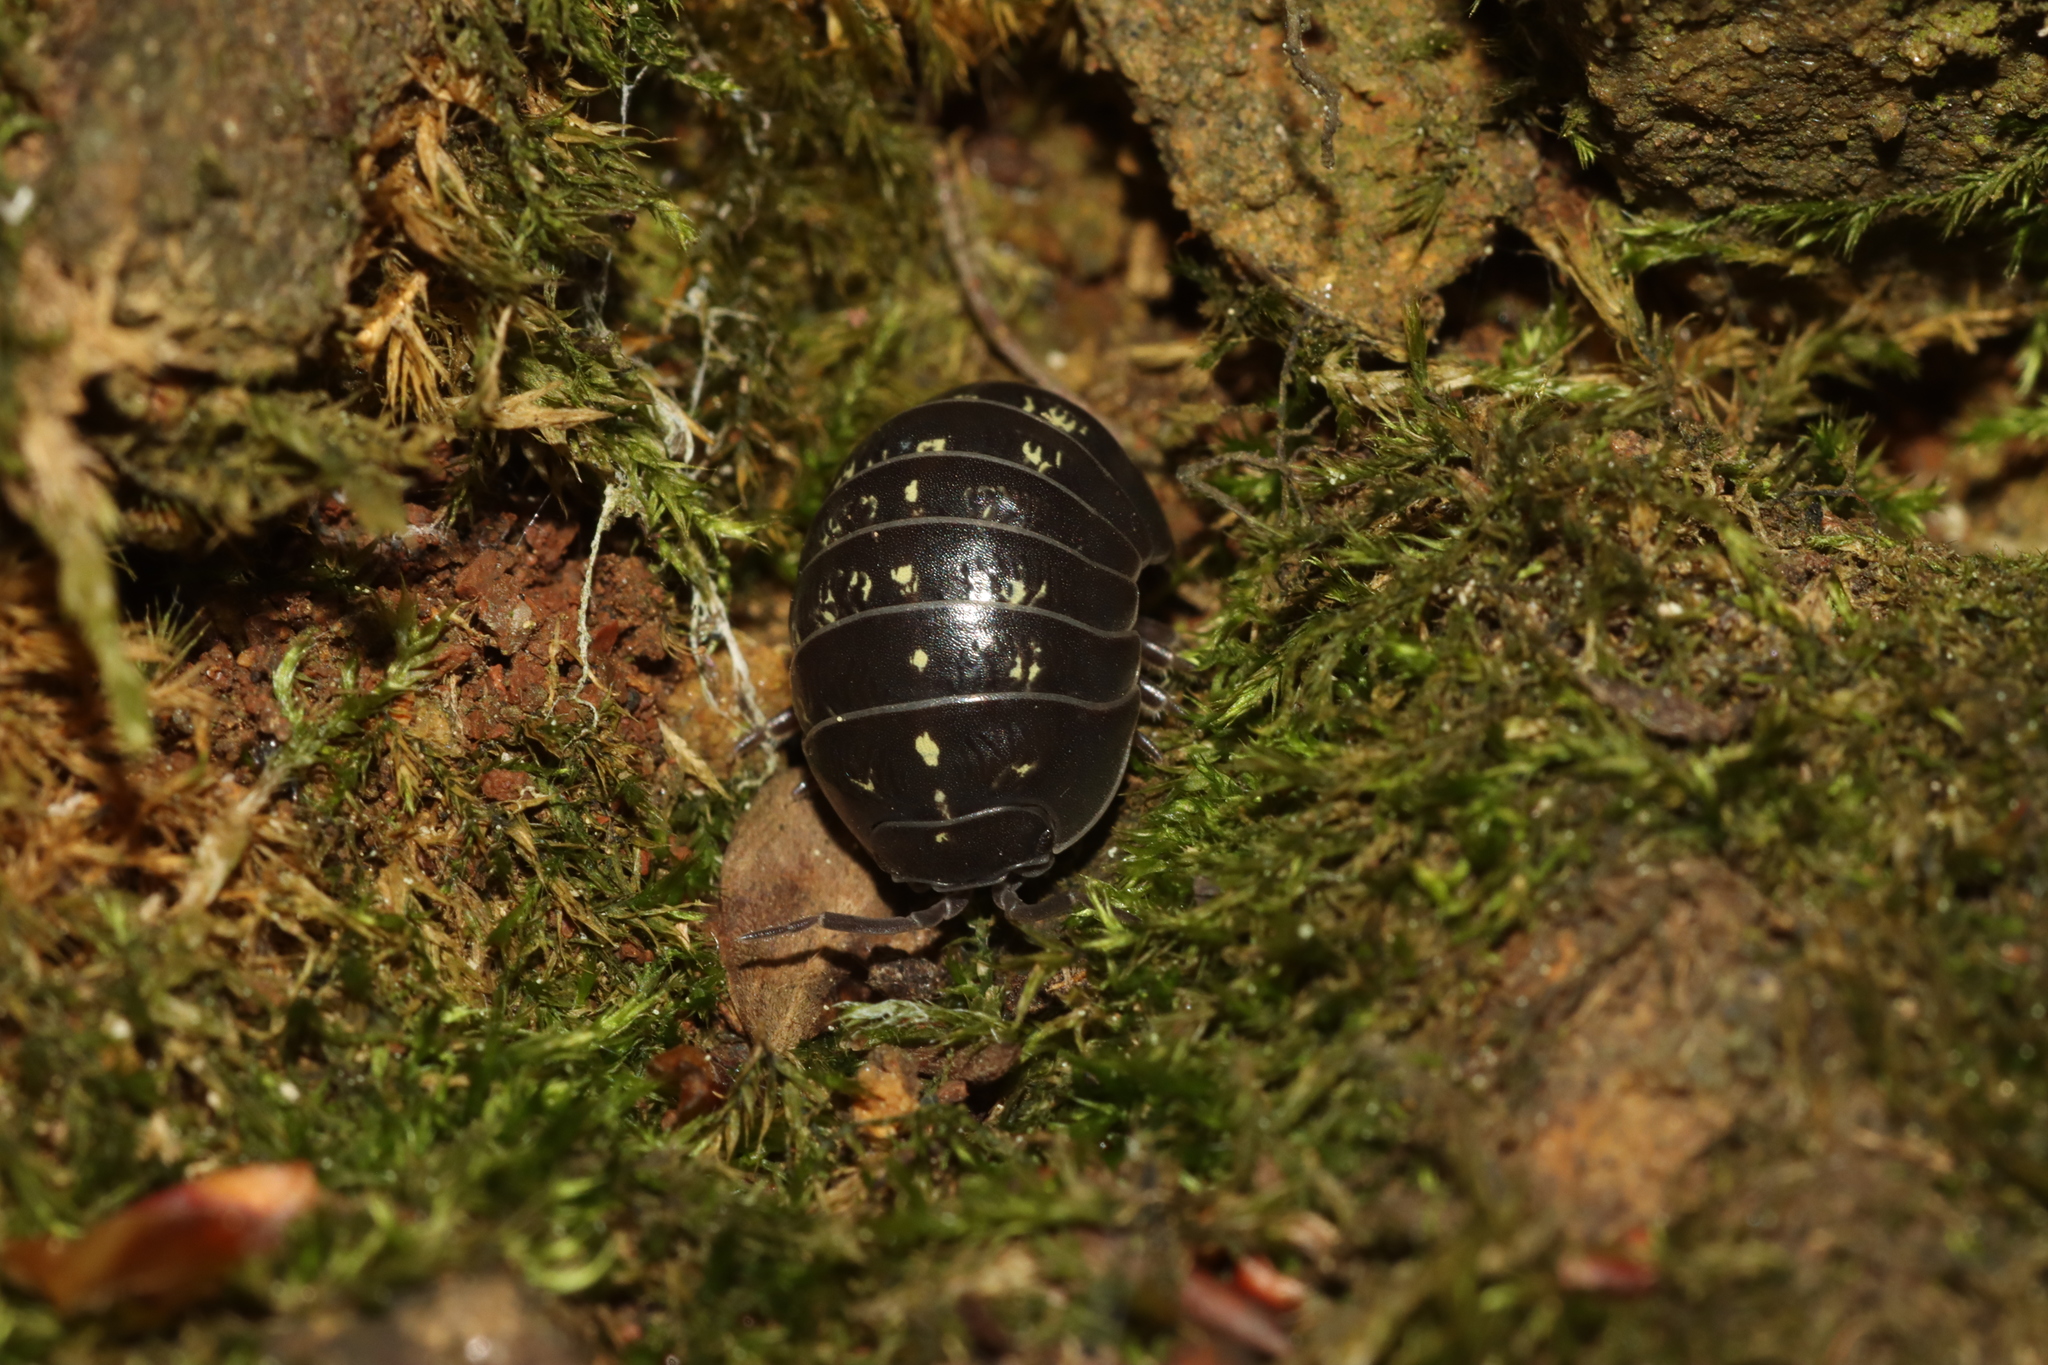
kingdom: Animalia
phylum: Arthropoda
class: Malacostraca
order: Isopoda
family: Armadillidiidae
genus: Armadillidium
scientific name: Armadillidium vulgare
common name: Common pill woodlouse
